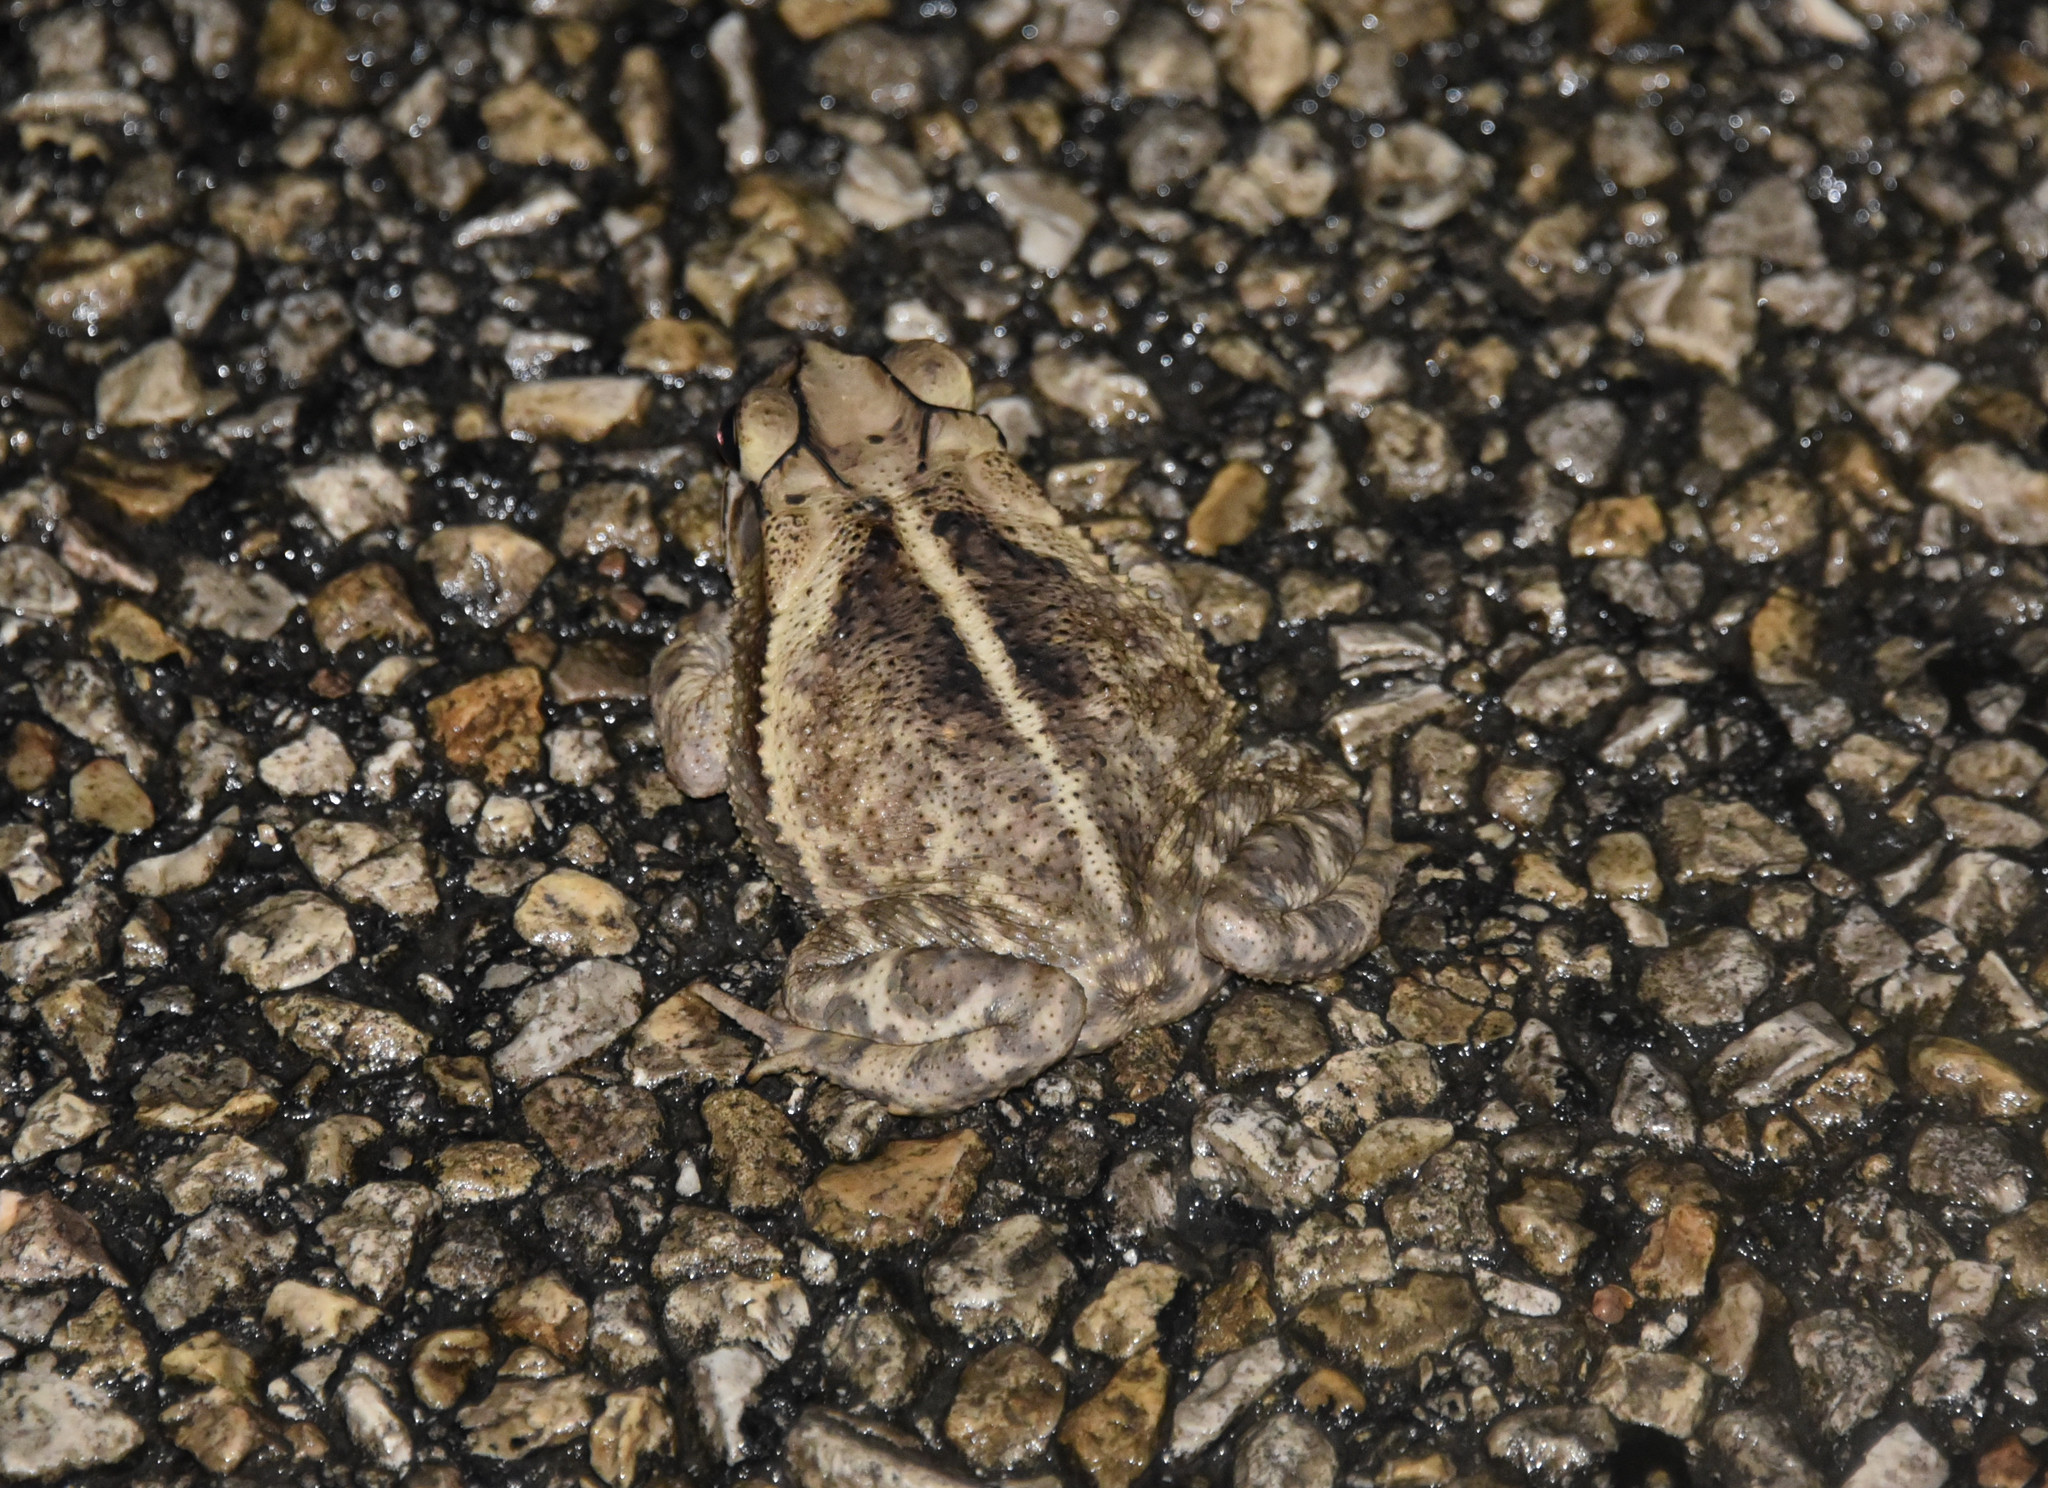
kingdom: Animalia
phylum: Chordata
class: Amphibia
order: Anura
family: Bufonidae
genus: Incilius
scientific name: Incilius nebulifer
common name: Gulf coast toad
